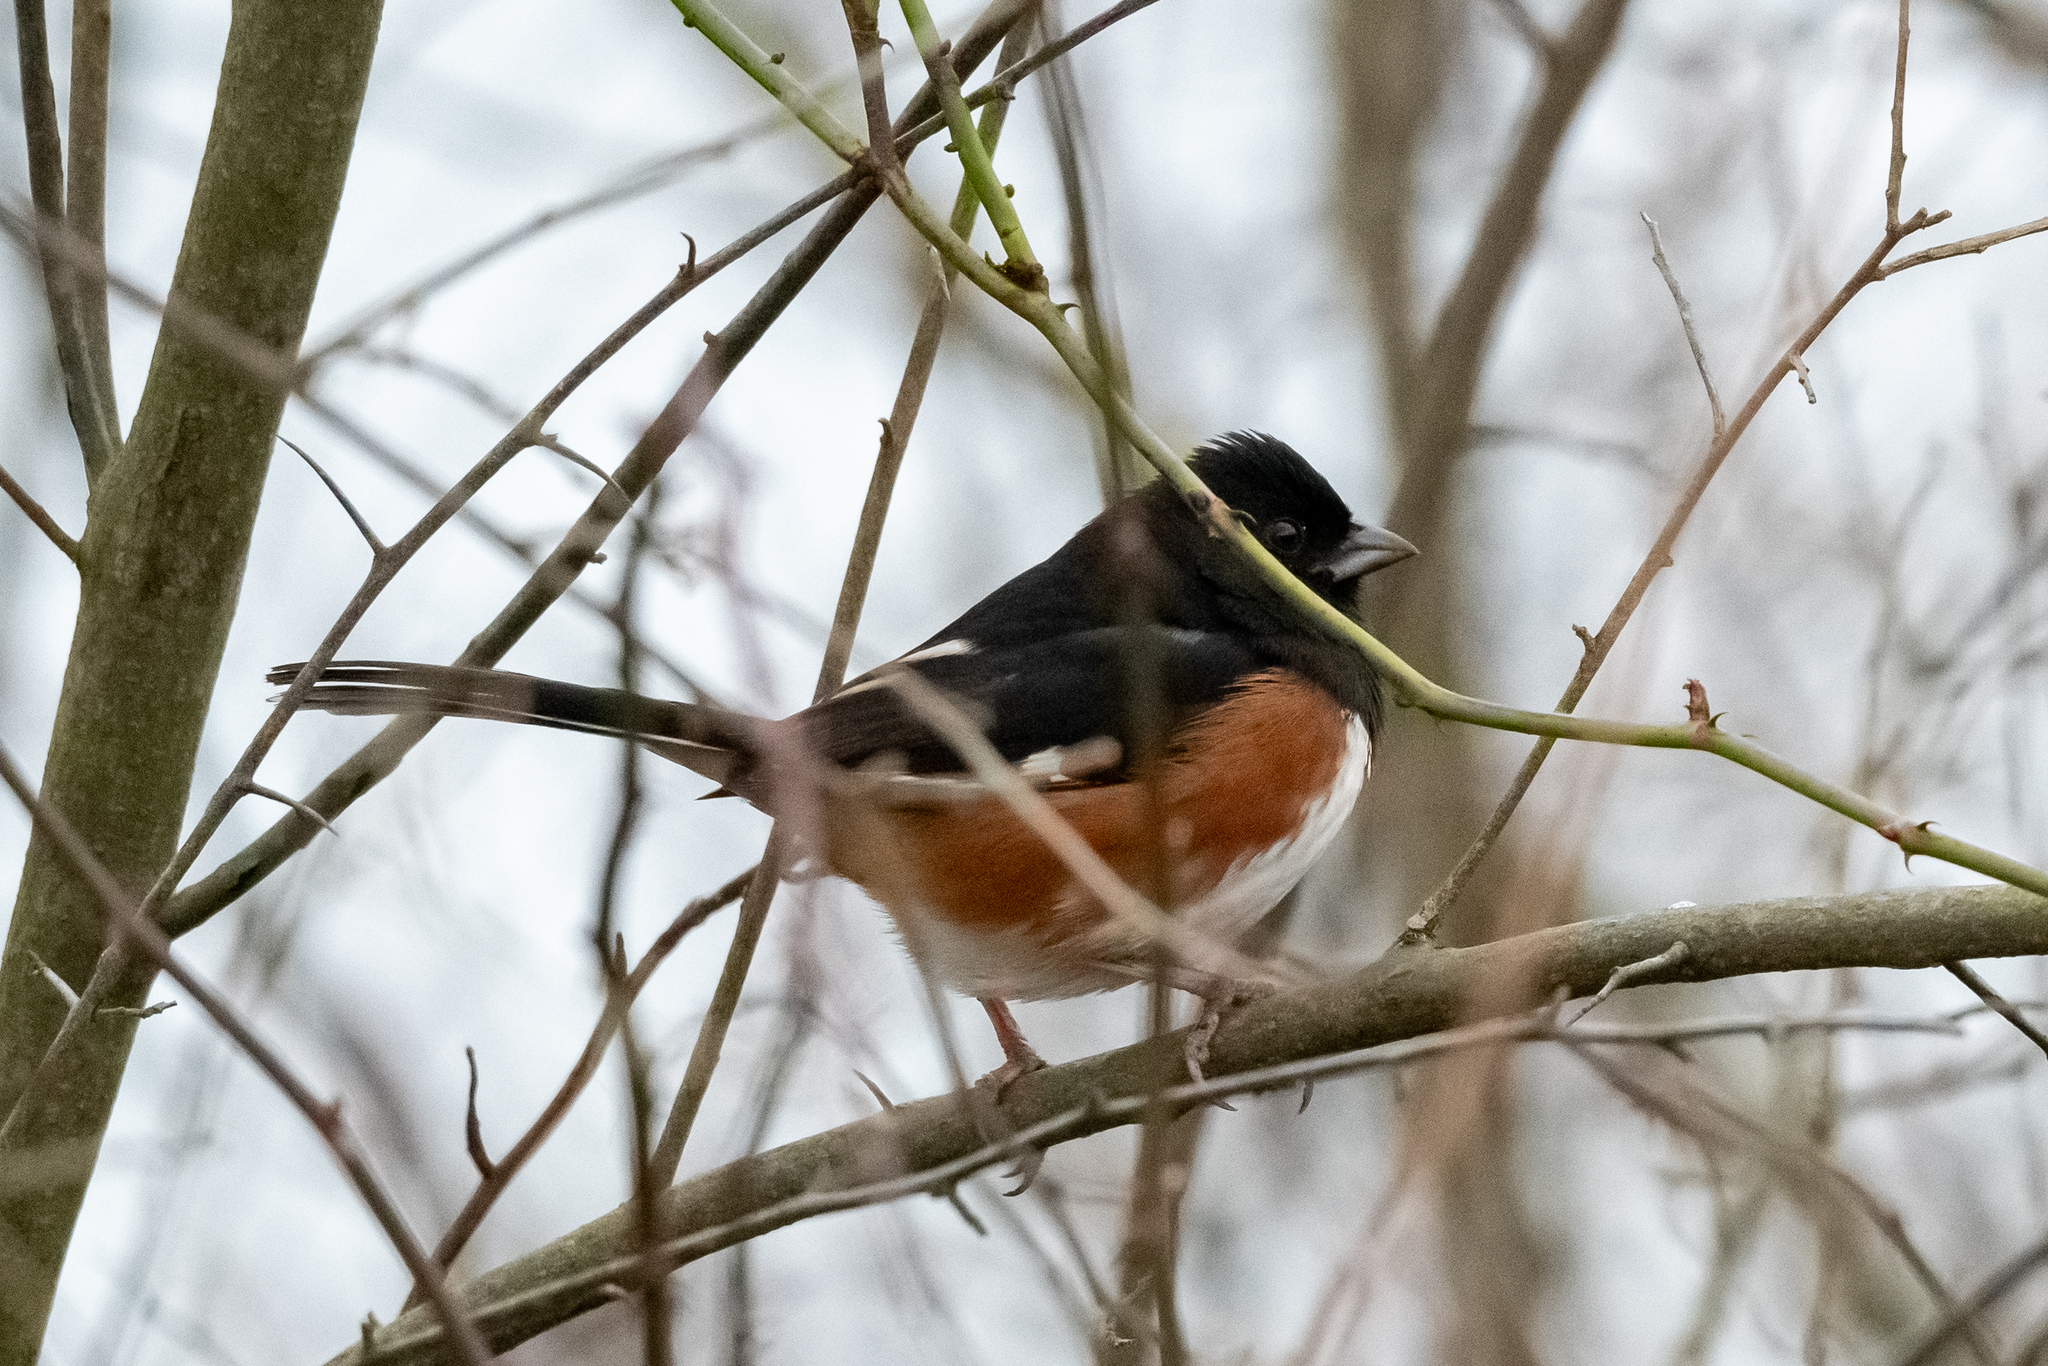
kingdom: Animalia
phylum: Chordata
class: Aves
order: Passeriformes
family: Passerellidae
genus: Pipilo
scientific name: Pipilo erythrophthalmus
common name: Eastern towhee
